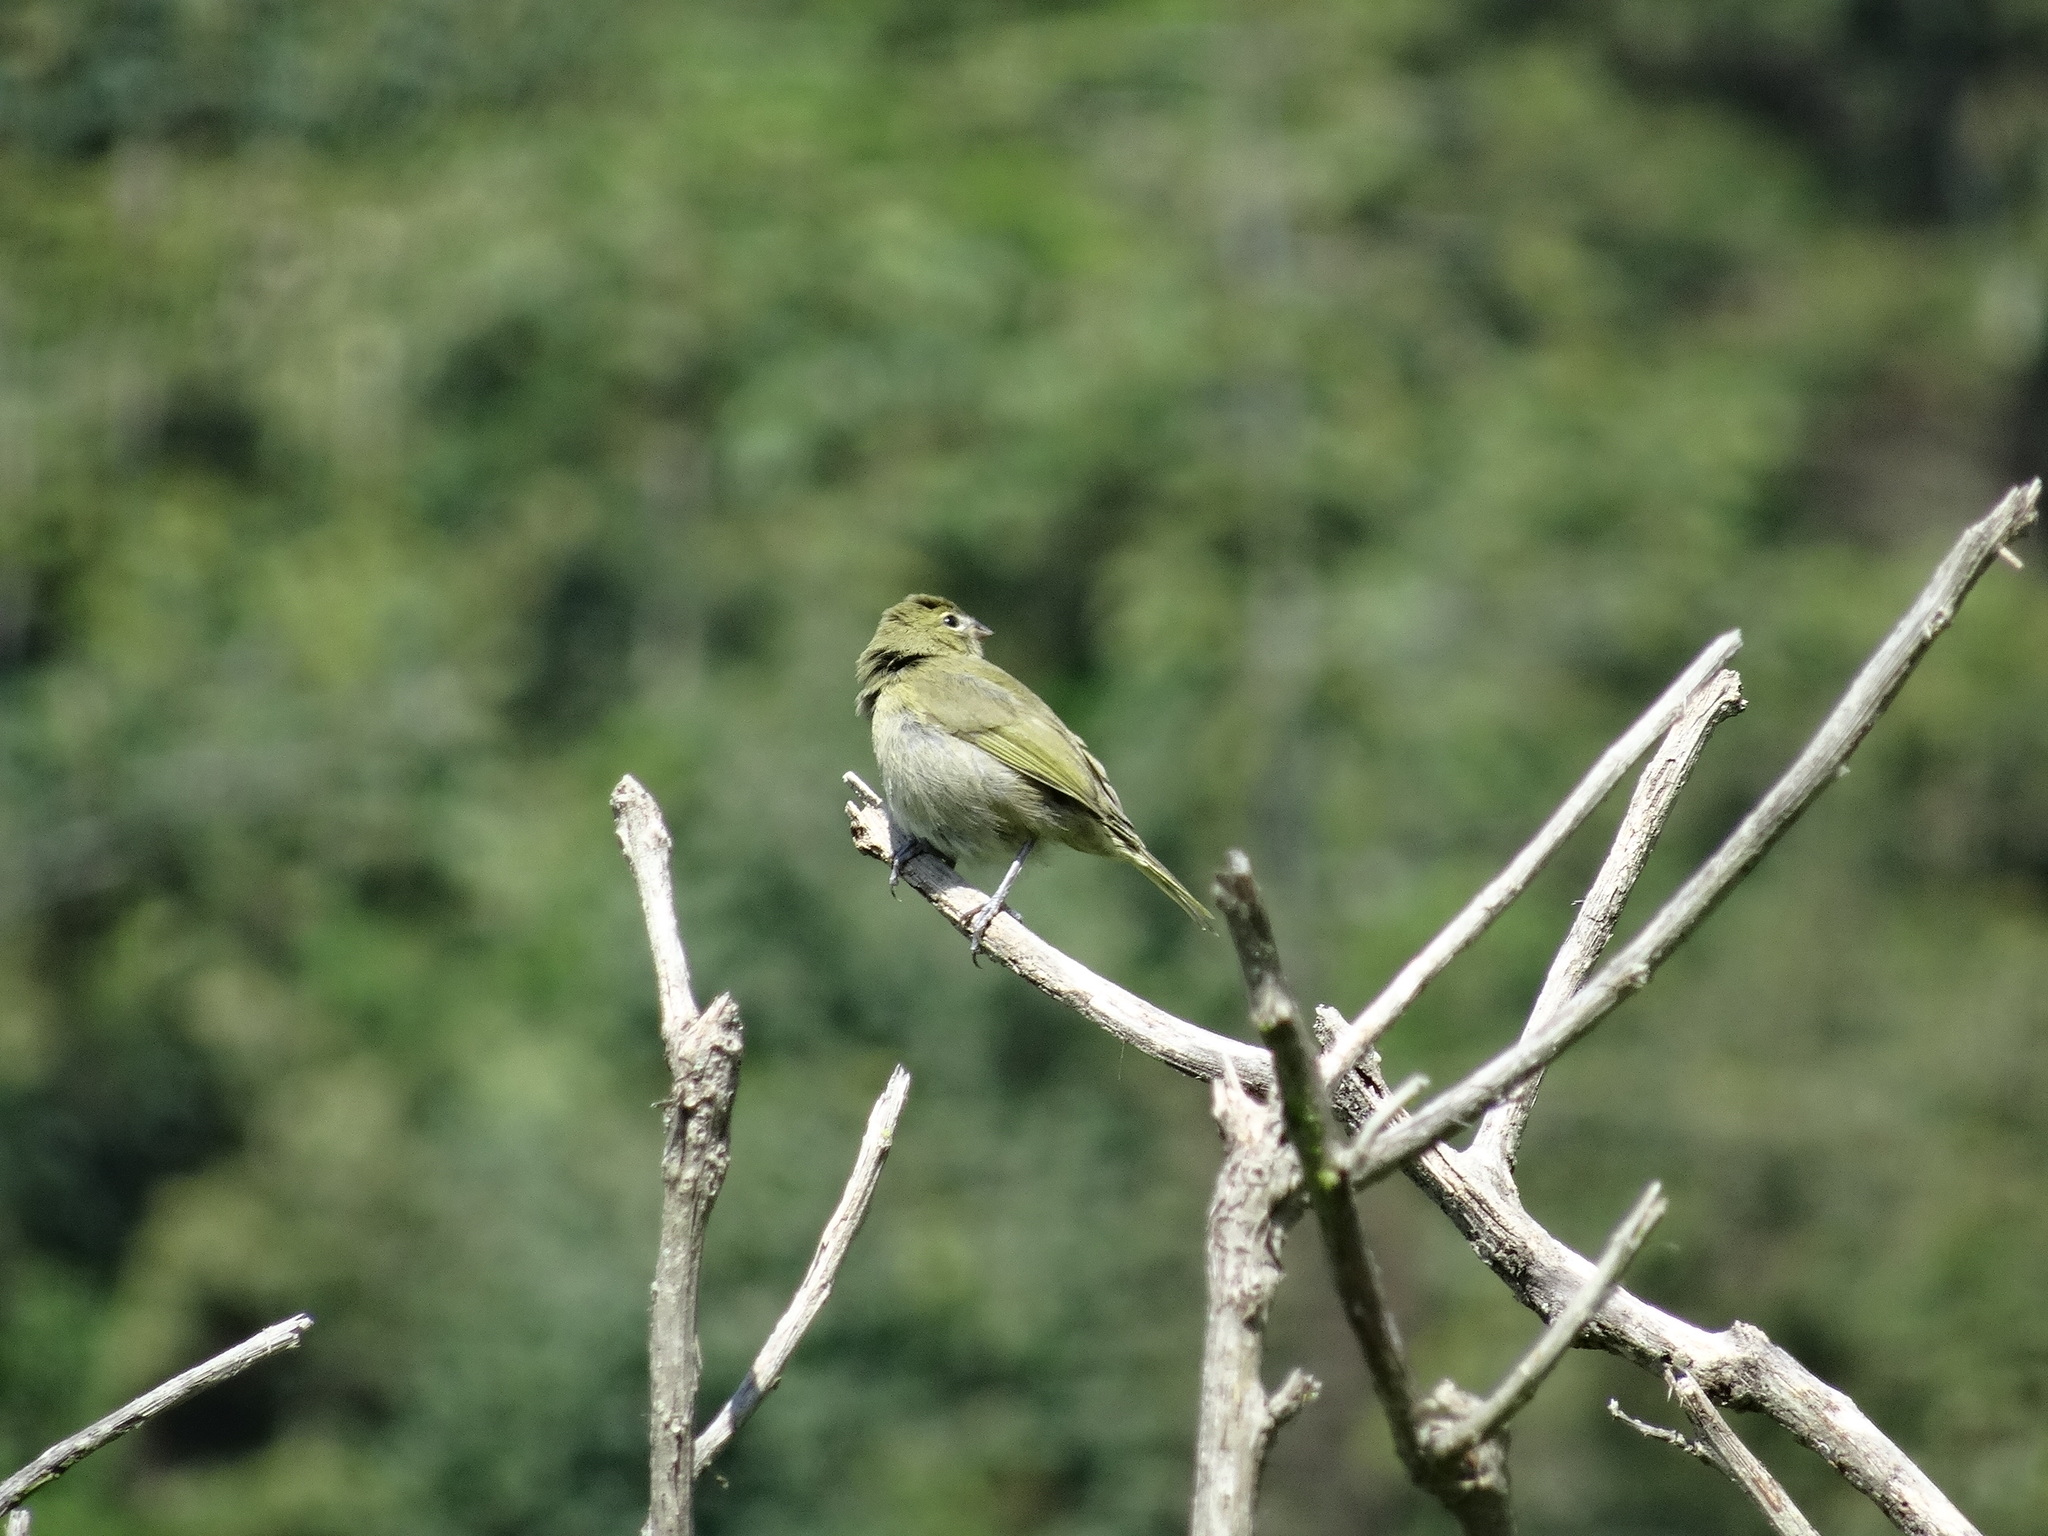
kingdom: Animalia
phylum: Chordata
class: Aves
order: Passeriformes
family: Thraupidae
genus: Tiaris
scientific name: Tiaris olivaceus
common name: Yellow-faced grassquit
